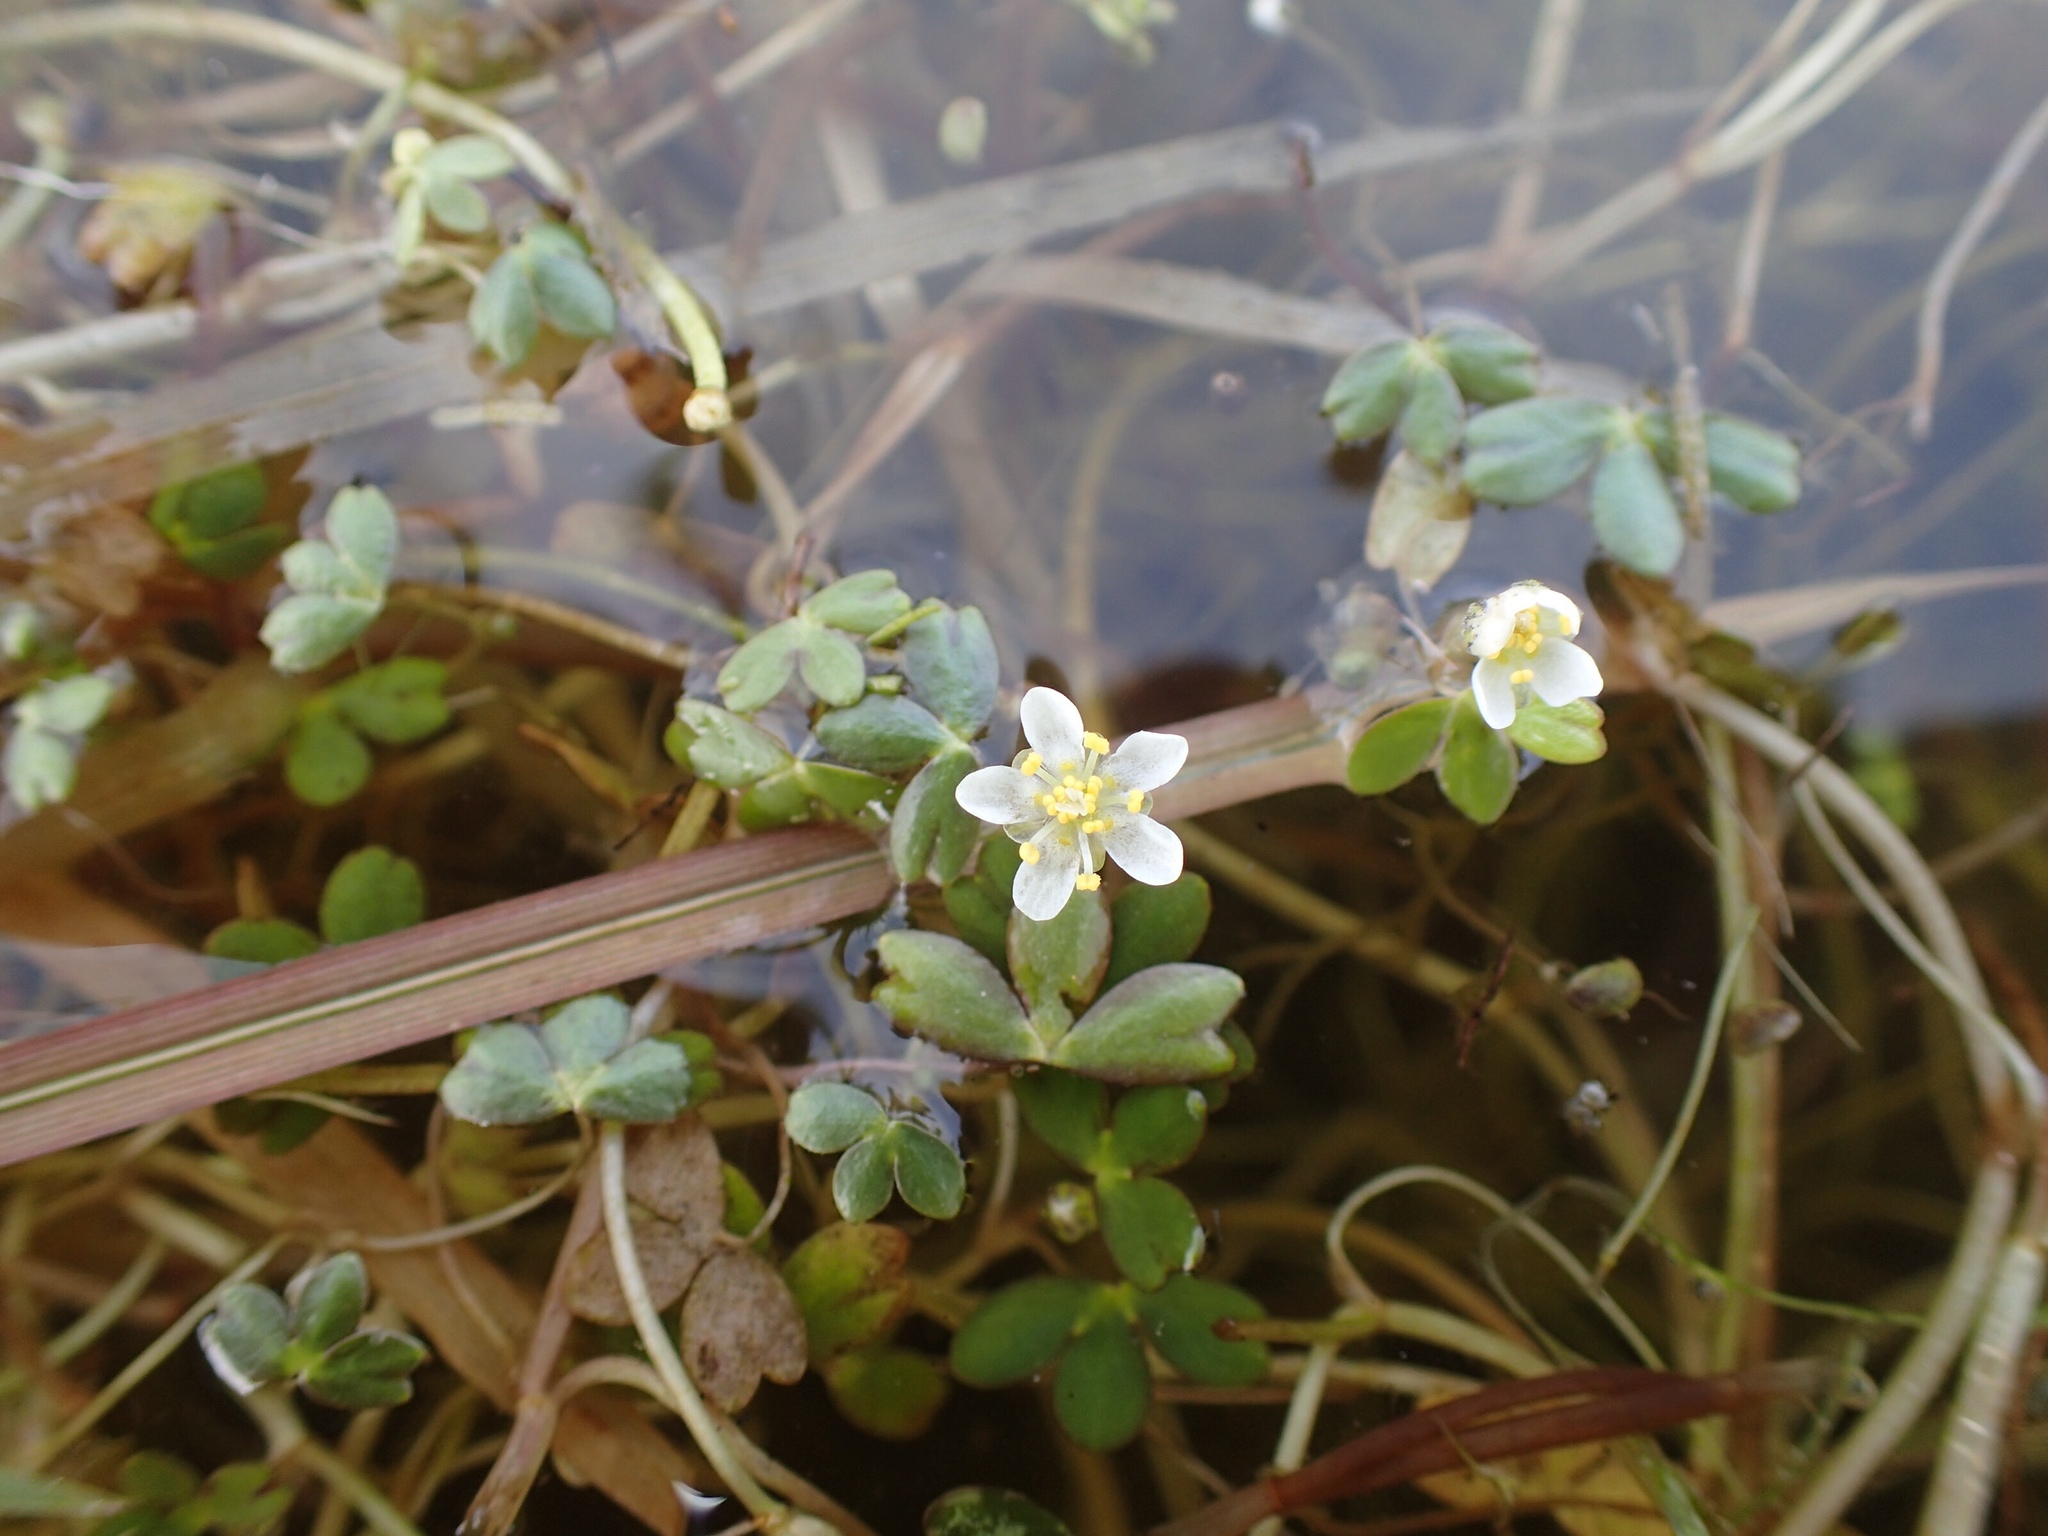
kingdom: Plantae
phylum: Tracheophyta
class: Magnoliopsida
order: Ranunculales
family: Ranunculaceae
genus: Ranunculus
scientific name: Ranunculus lobbii
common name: Lobb's buttercup
